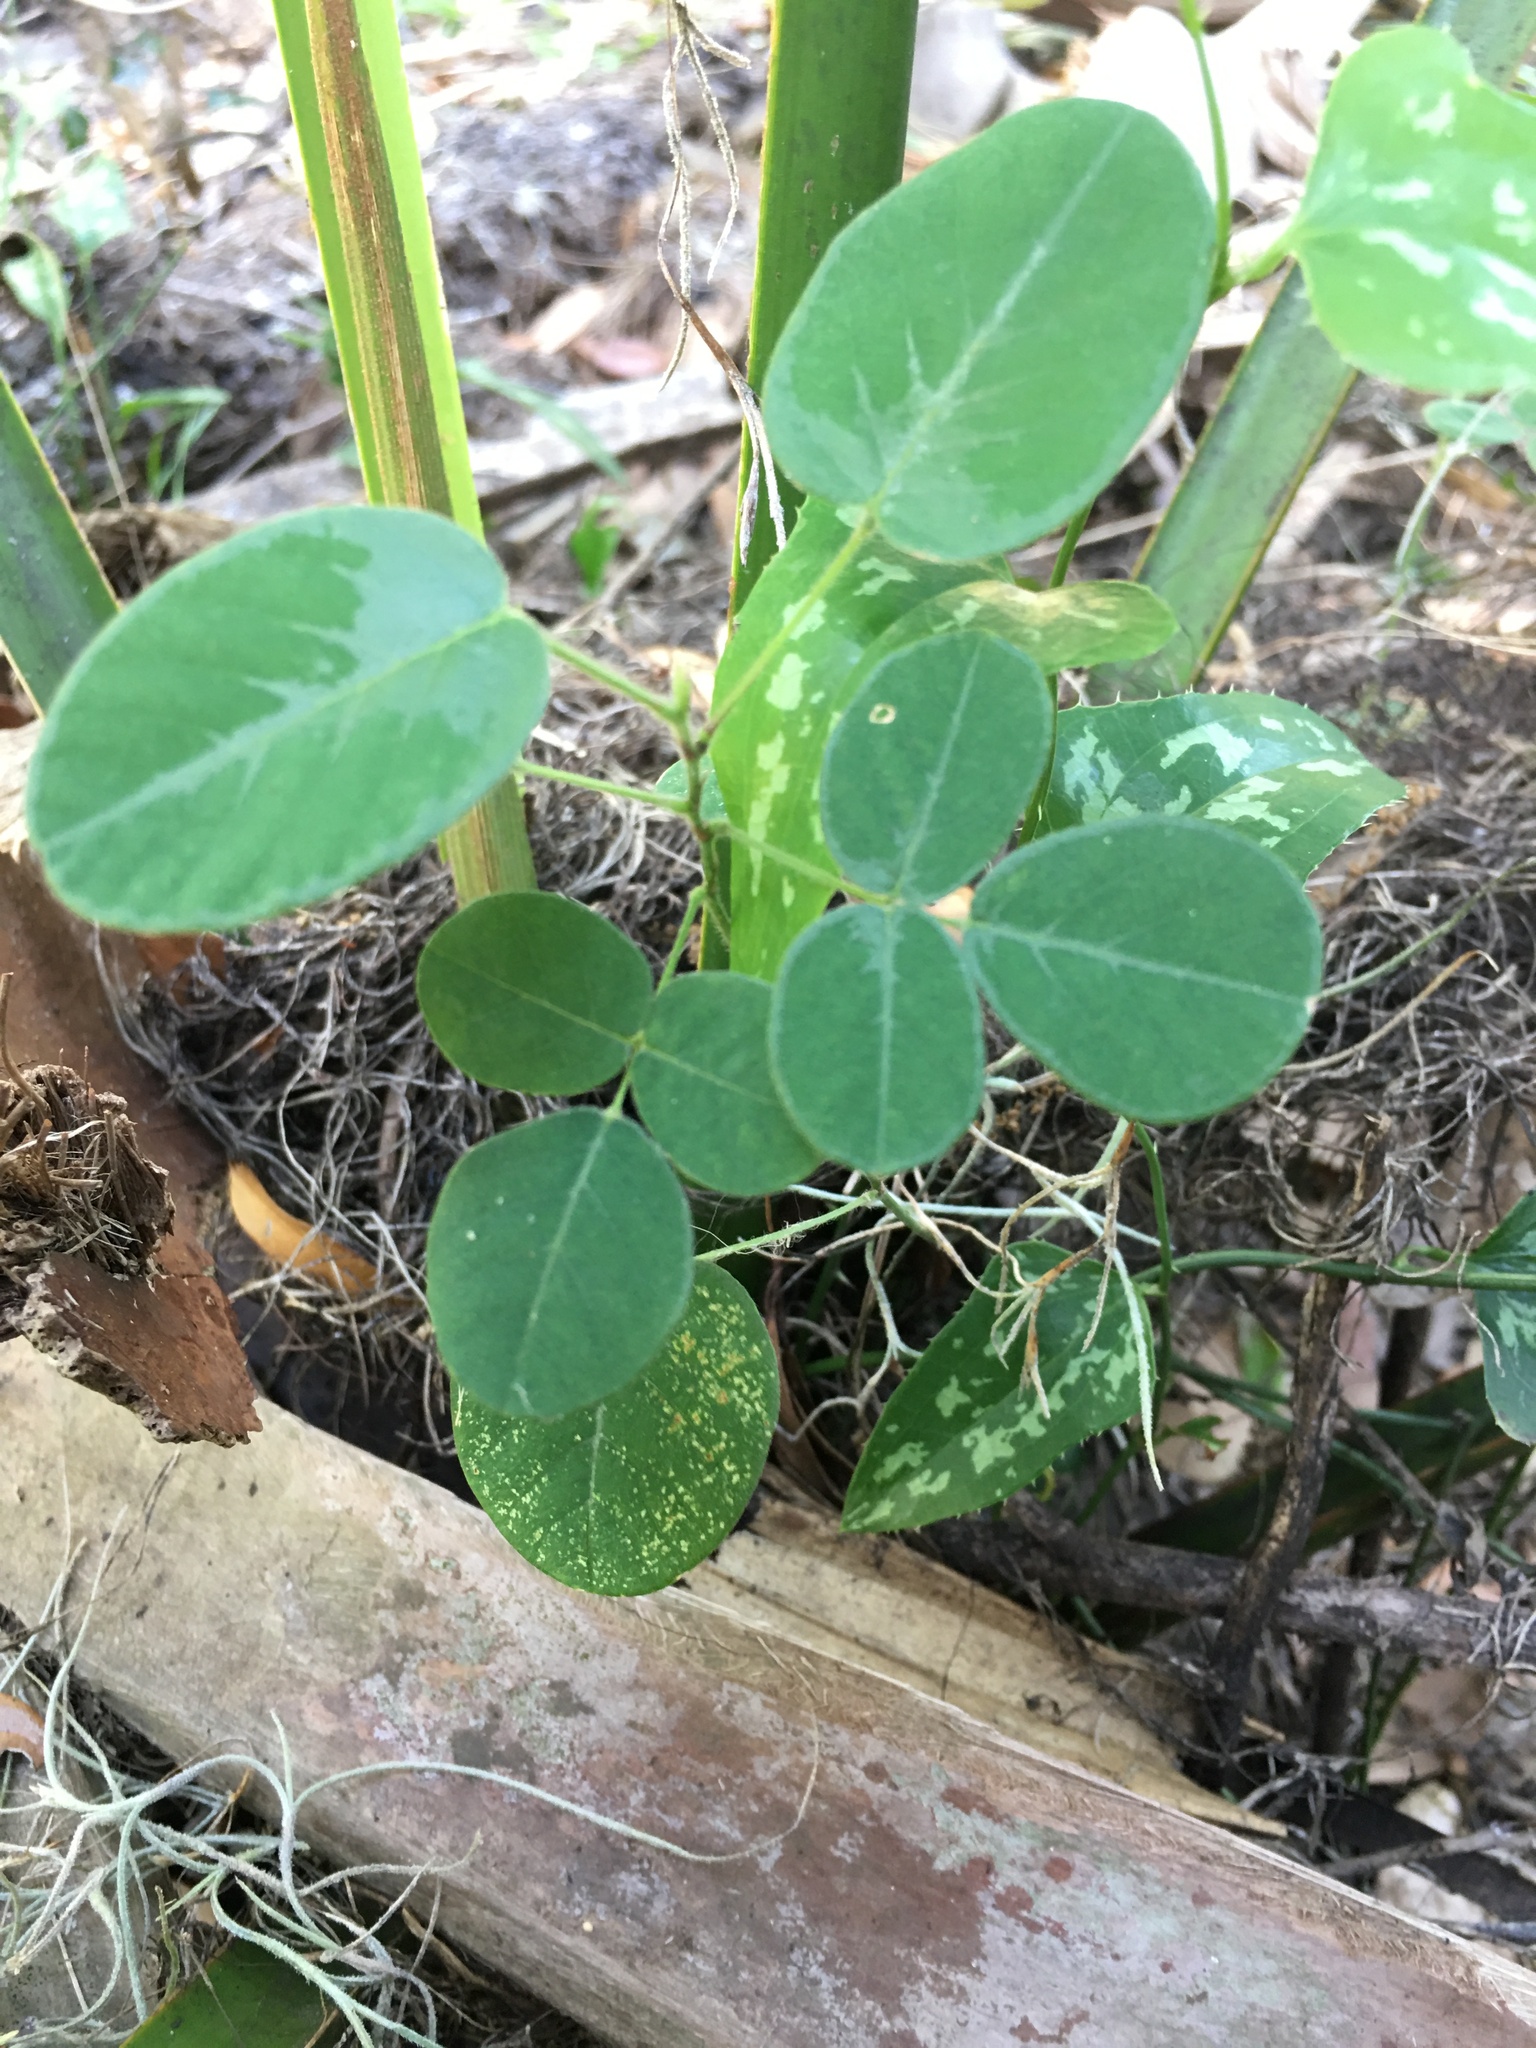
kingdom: Plantae
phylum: Tracheophyta
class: Magnoliopsida
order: Fabales
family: Fabaceae
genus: Desmodium
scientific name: Desmodium incanum
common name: Tickclover
